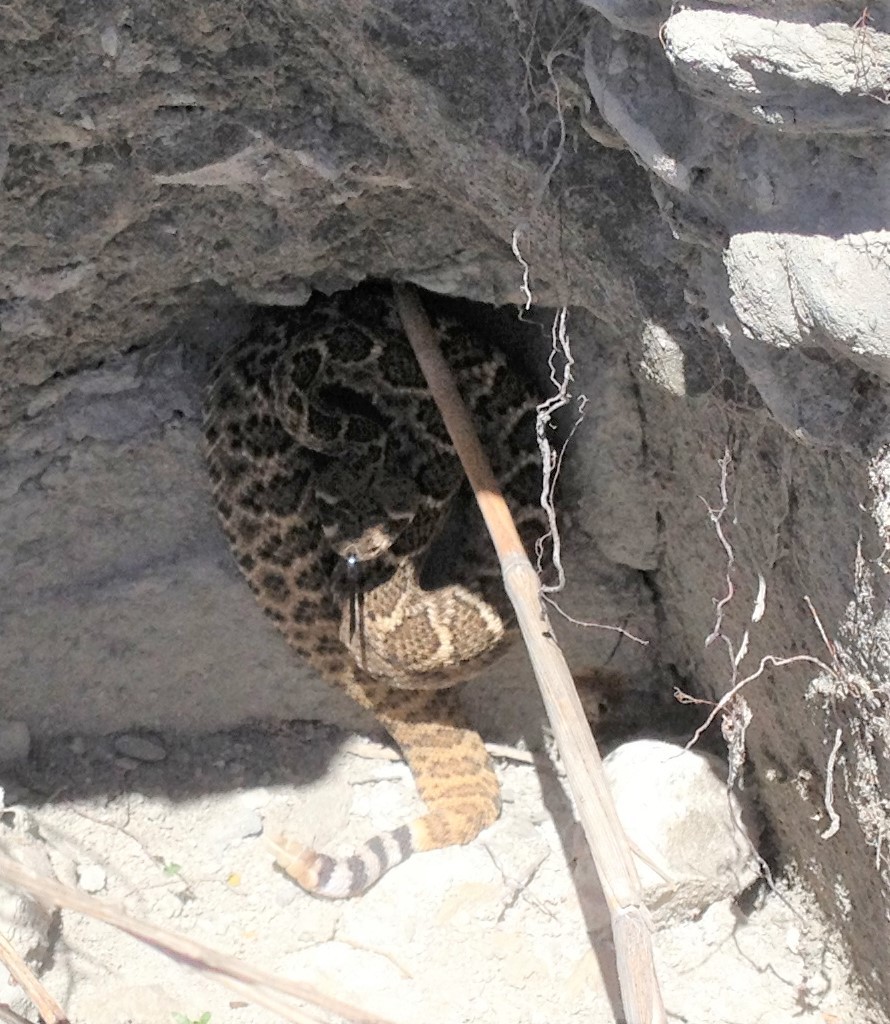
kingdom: Animalia
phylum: Chordata
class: Squamata
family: Viperidae
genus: Crotalus
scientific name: Crotalus atrox
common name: Western diamond-backed rattlesnake
